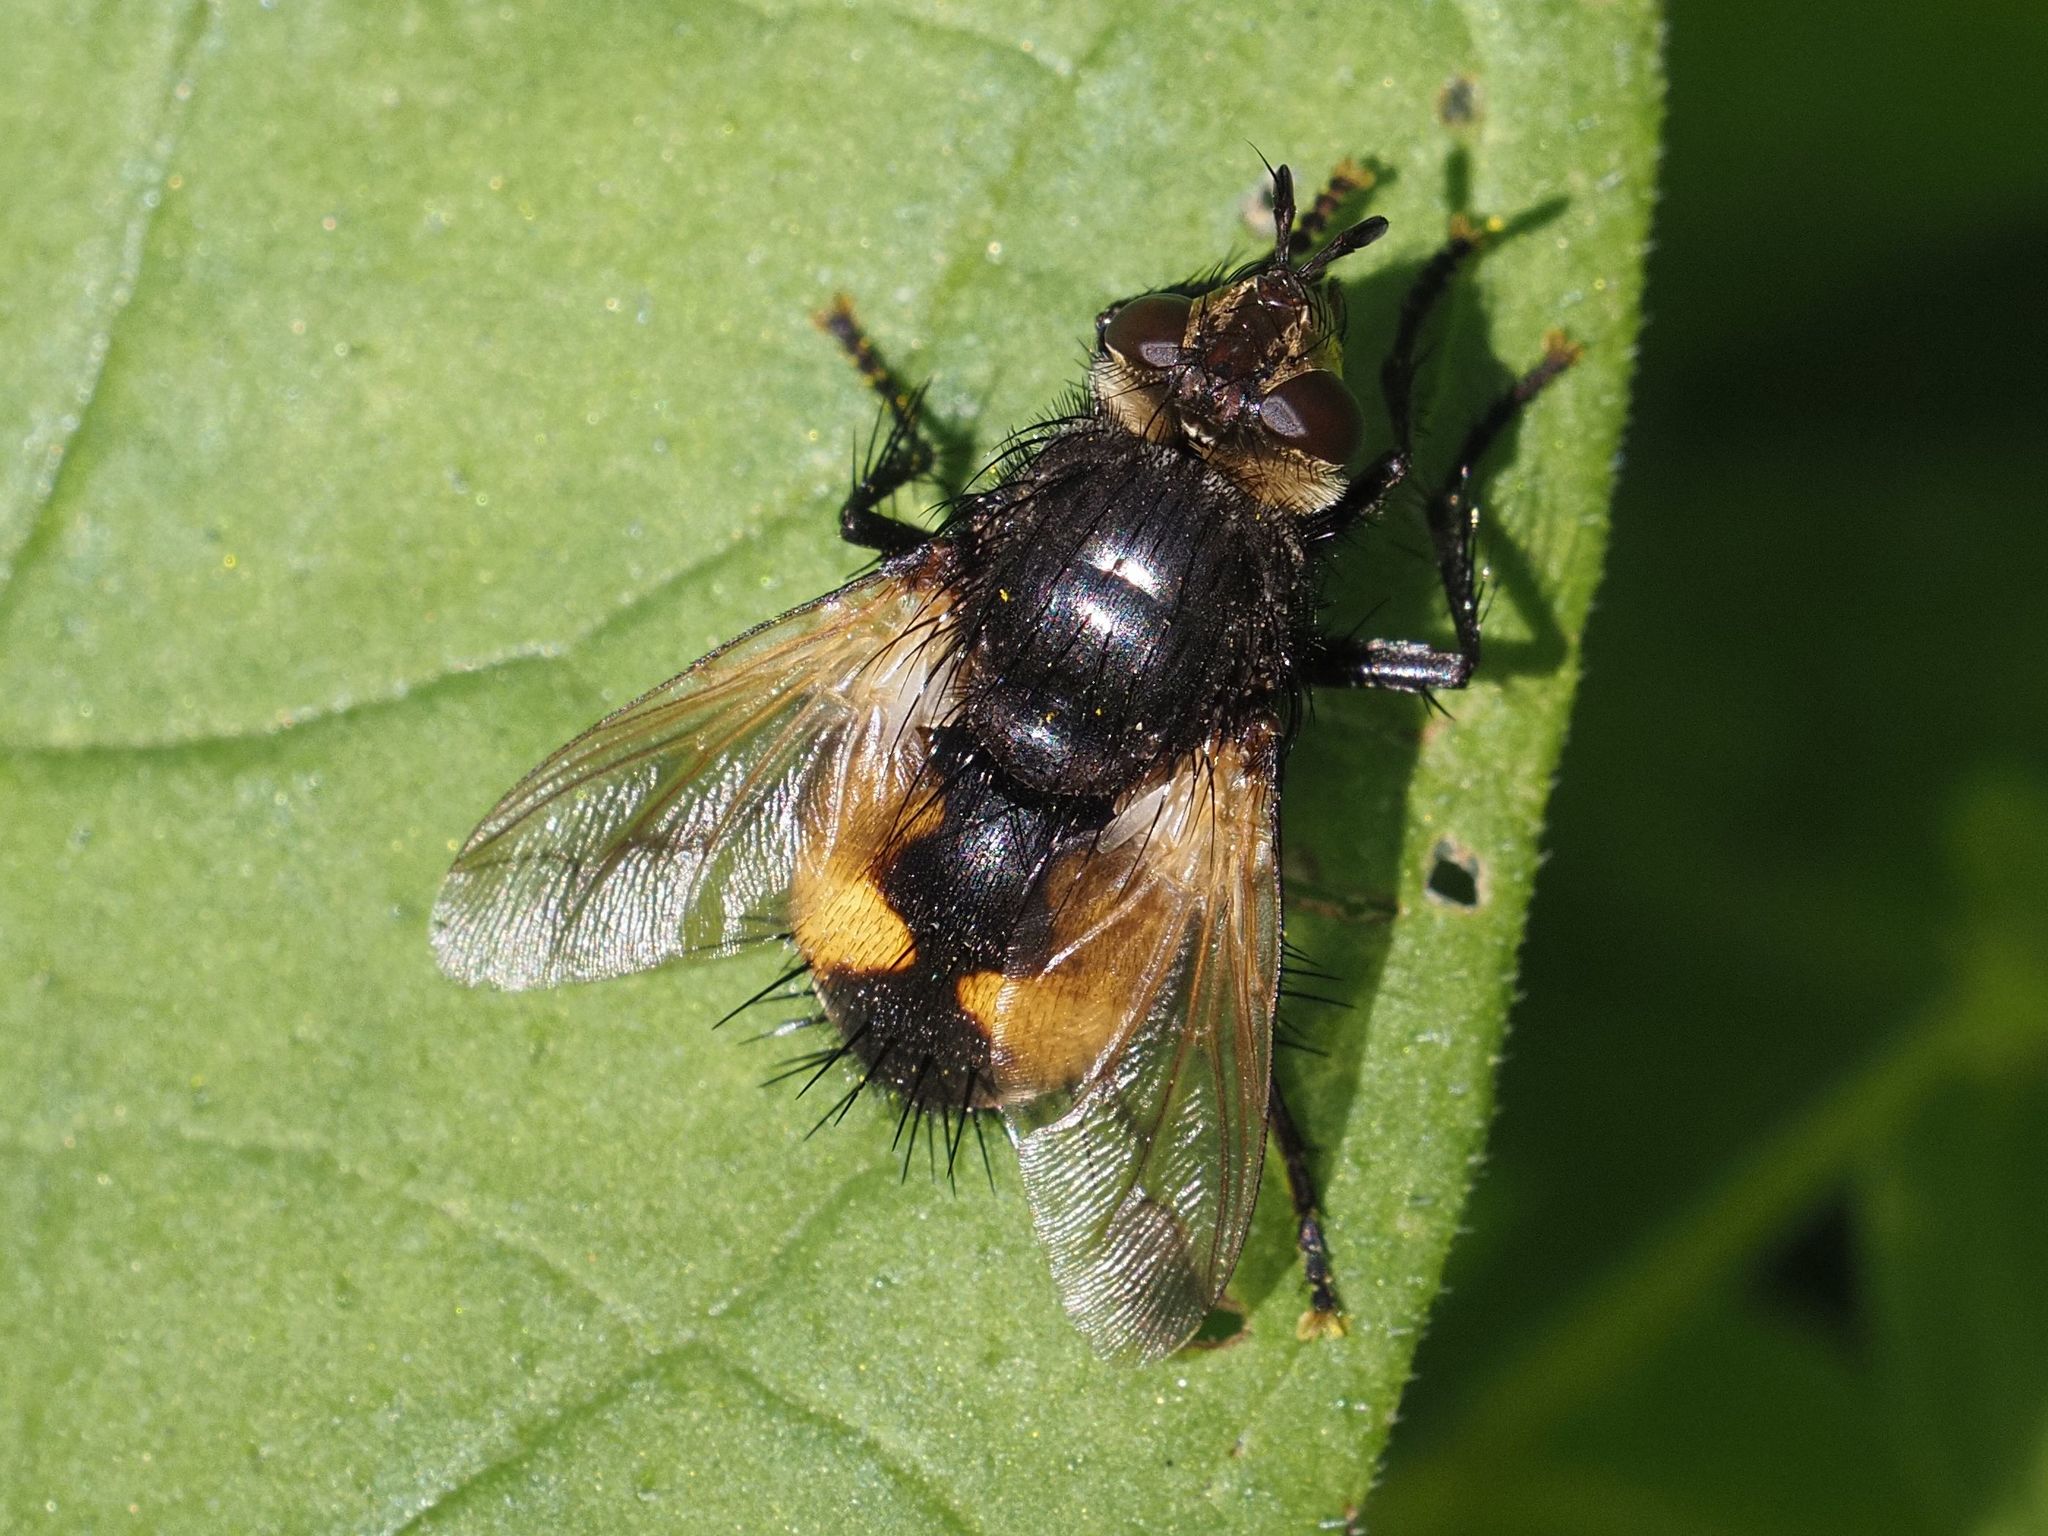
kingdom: Animalia
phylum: Arthropoda
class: Insecta
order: Diptera
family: Tachinidae
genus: Nowickia
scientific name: Nowickia ferox
